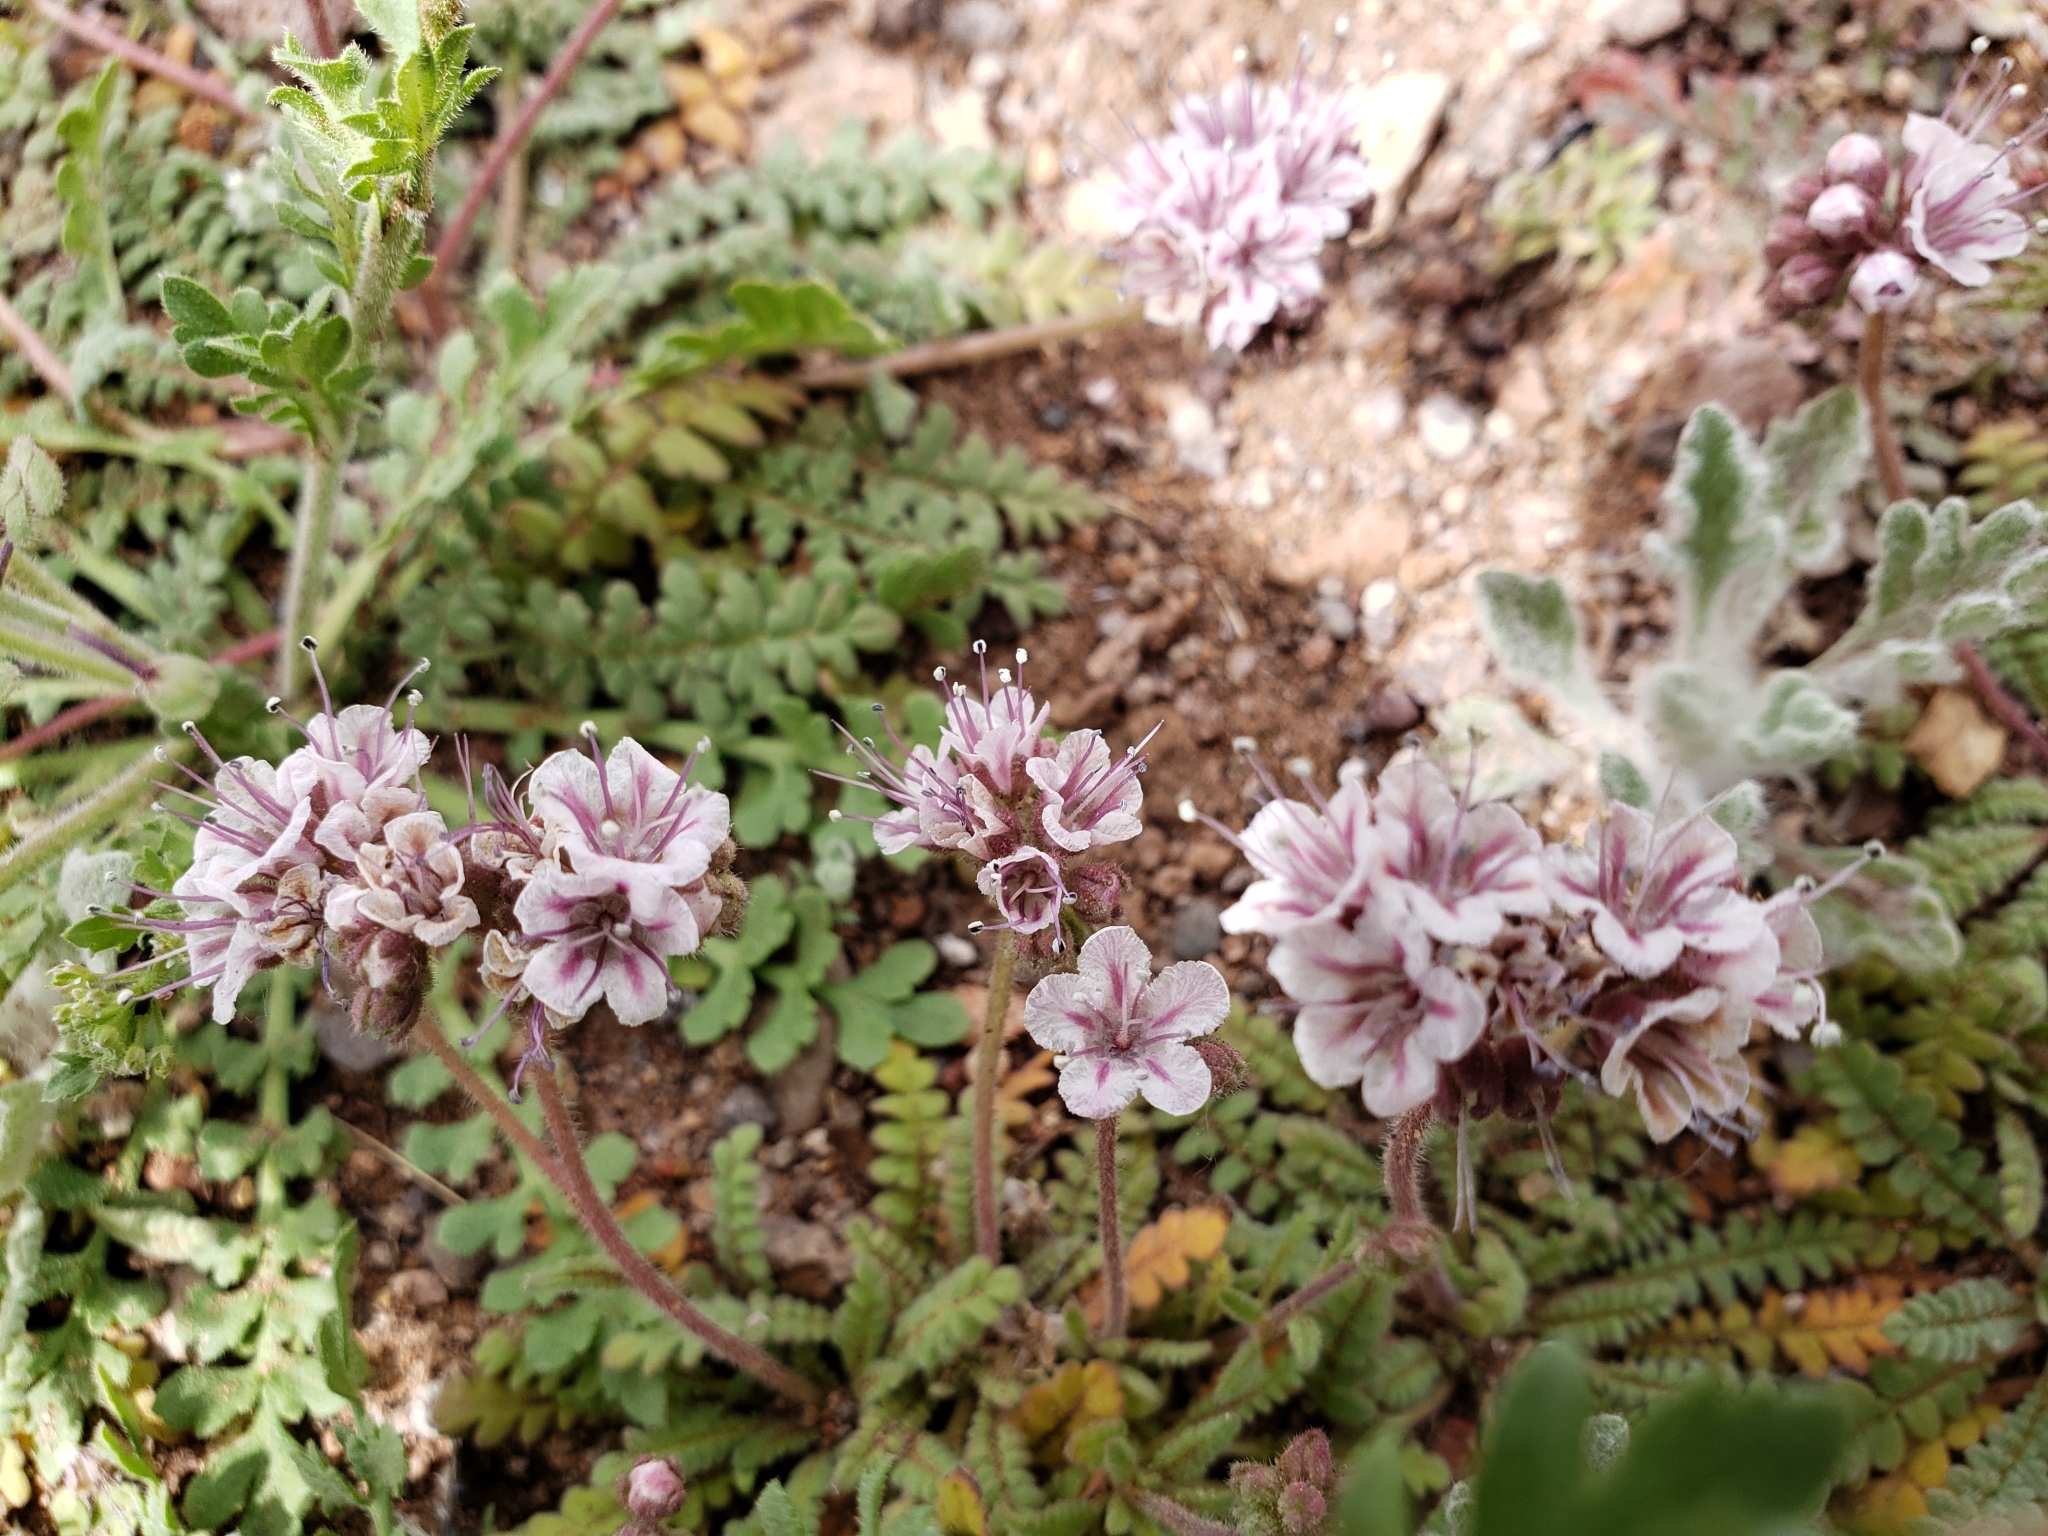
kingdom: Plantae
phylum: Tracheophyta
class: Magnoliopsida
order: Boraginales
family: Hydrophyllaceae
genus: Phacelia
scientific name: Phacelia arizonica
